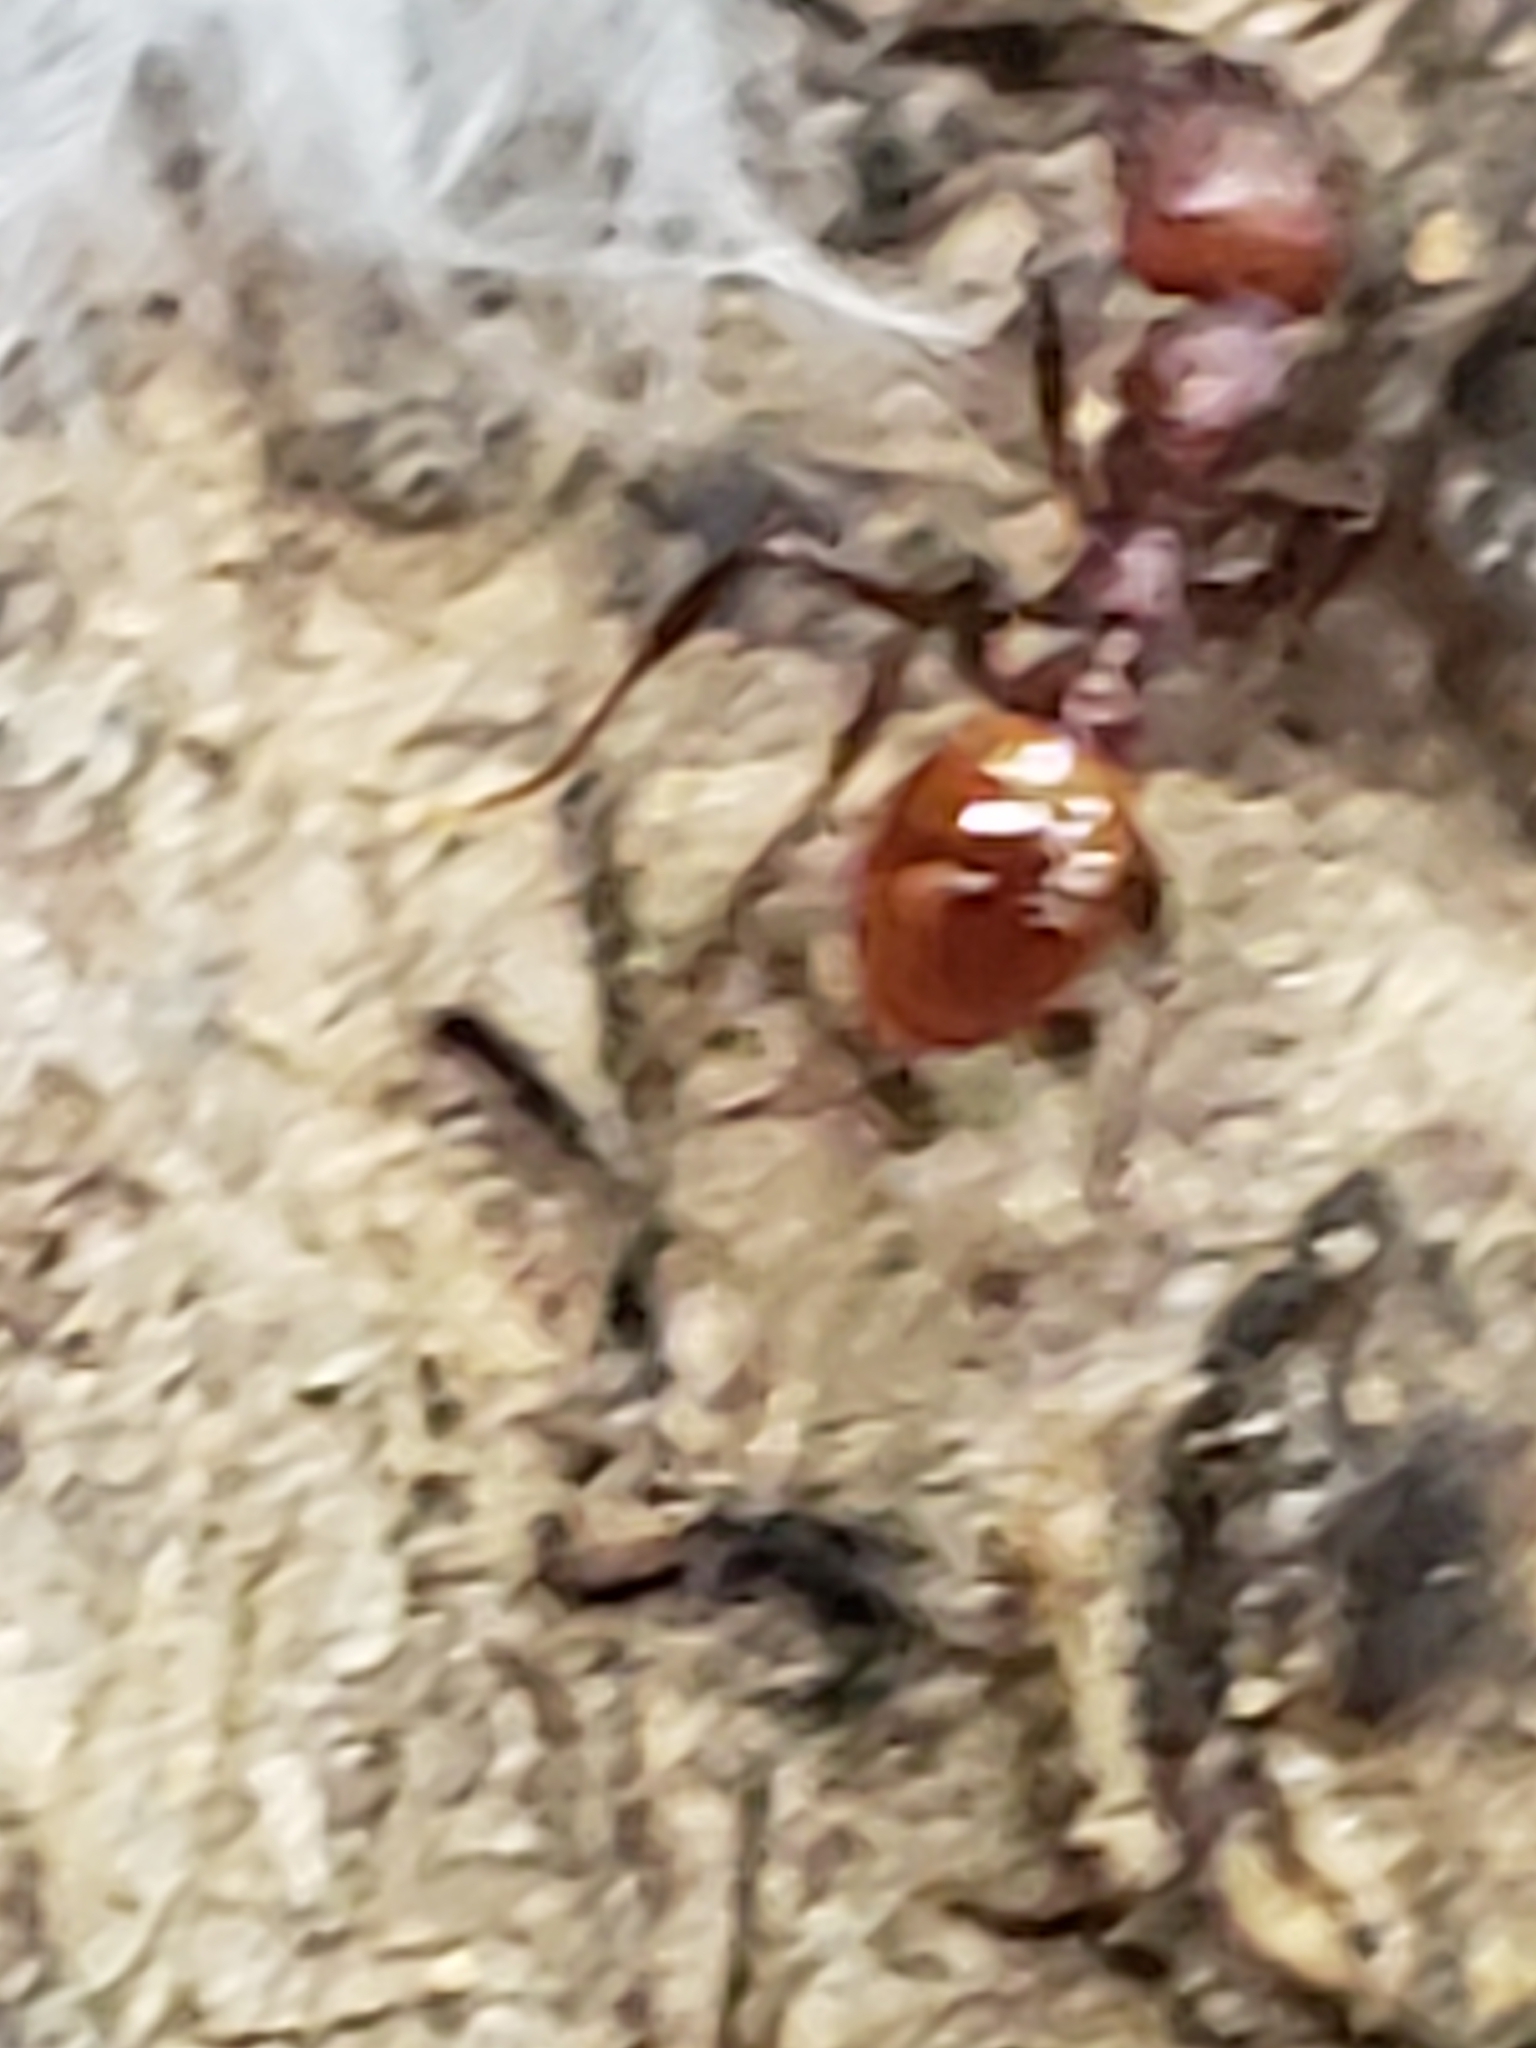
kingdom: Animalia
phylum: Arthropoda
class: Insecta
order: Hymenoptera
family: Formicidae
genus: Aphaenogaster
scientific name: Aphaenogaster tennesseensis
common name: Tennessee thread-waisted ant
